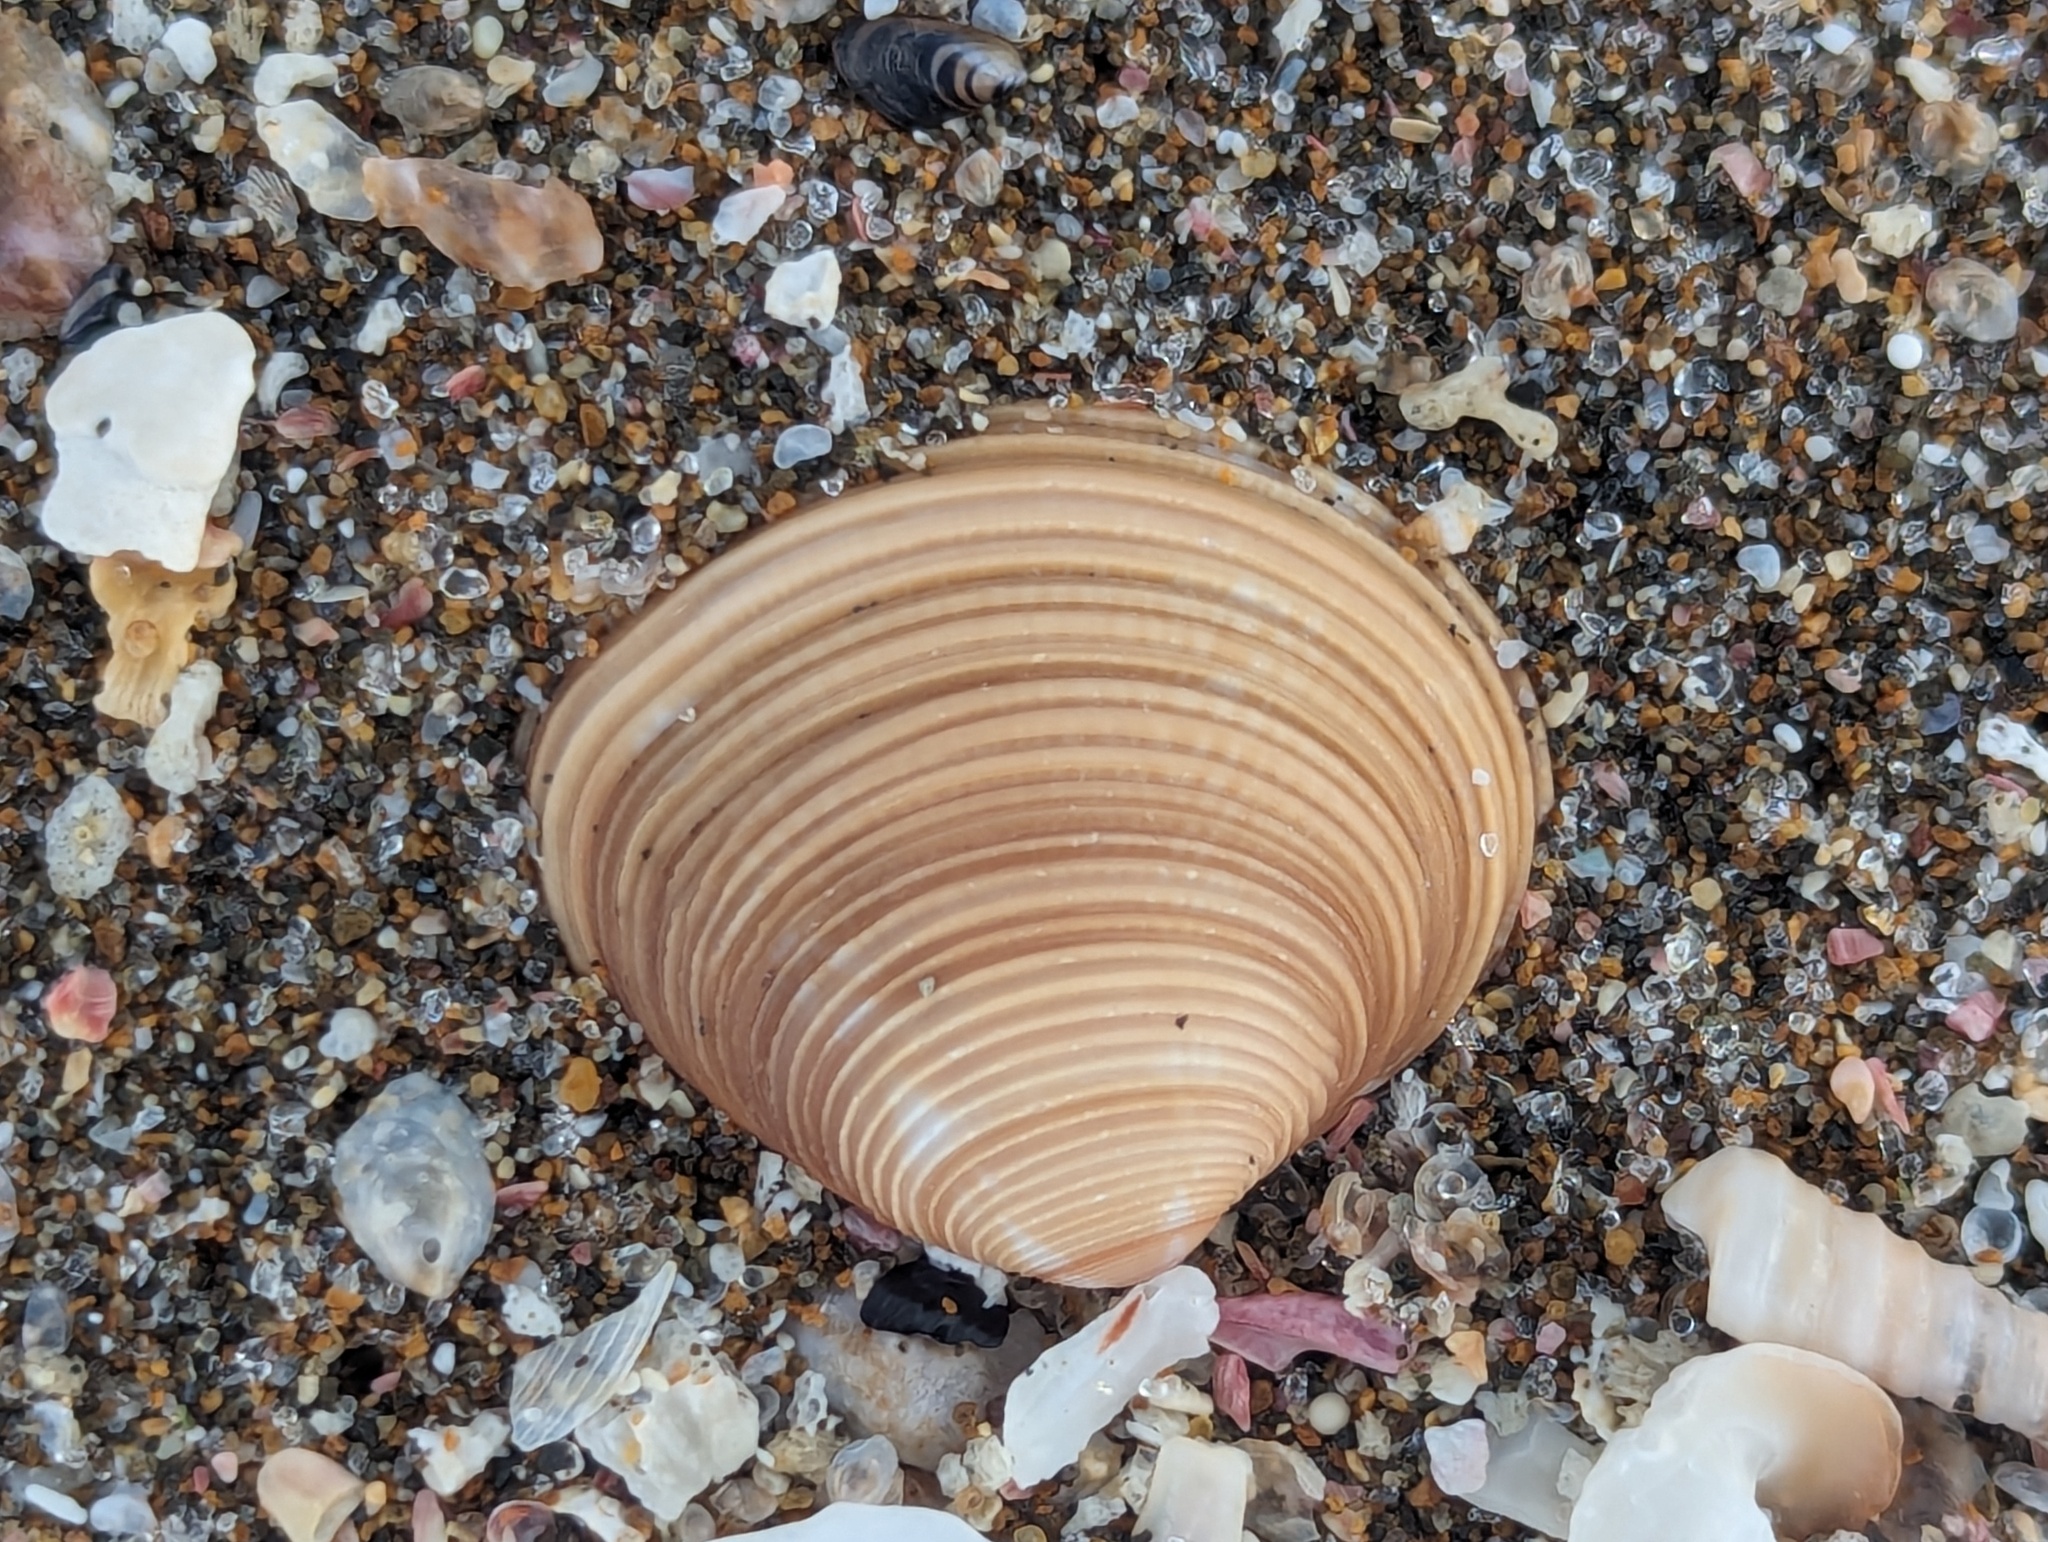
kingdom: Animalia
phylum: Mollusca
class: Bivalvia
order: Venerida
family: Veneridae
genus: Tawera
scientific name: Tawera spissa
